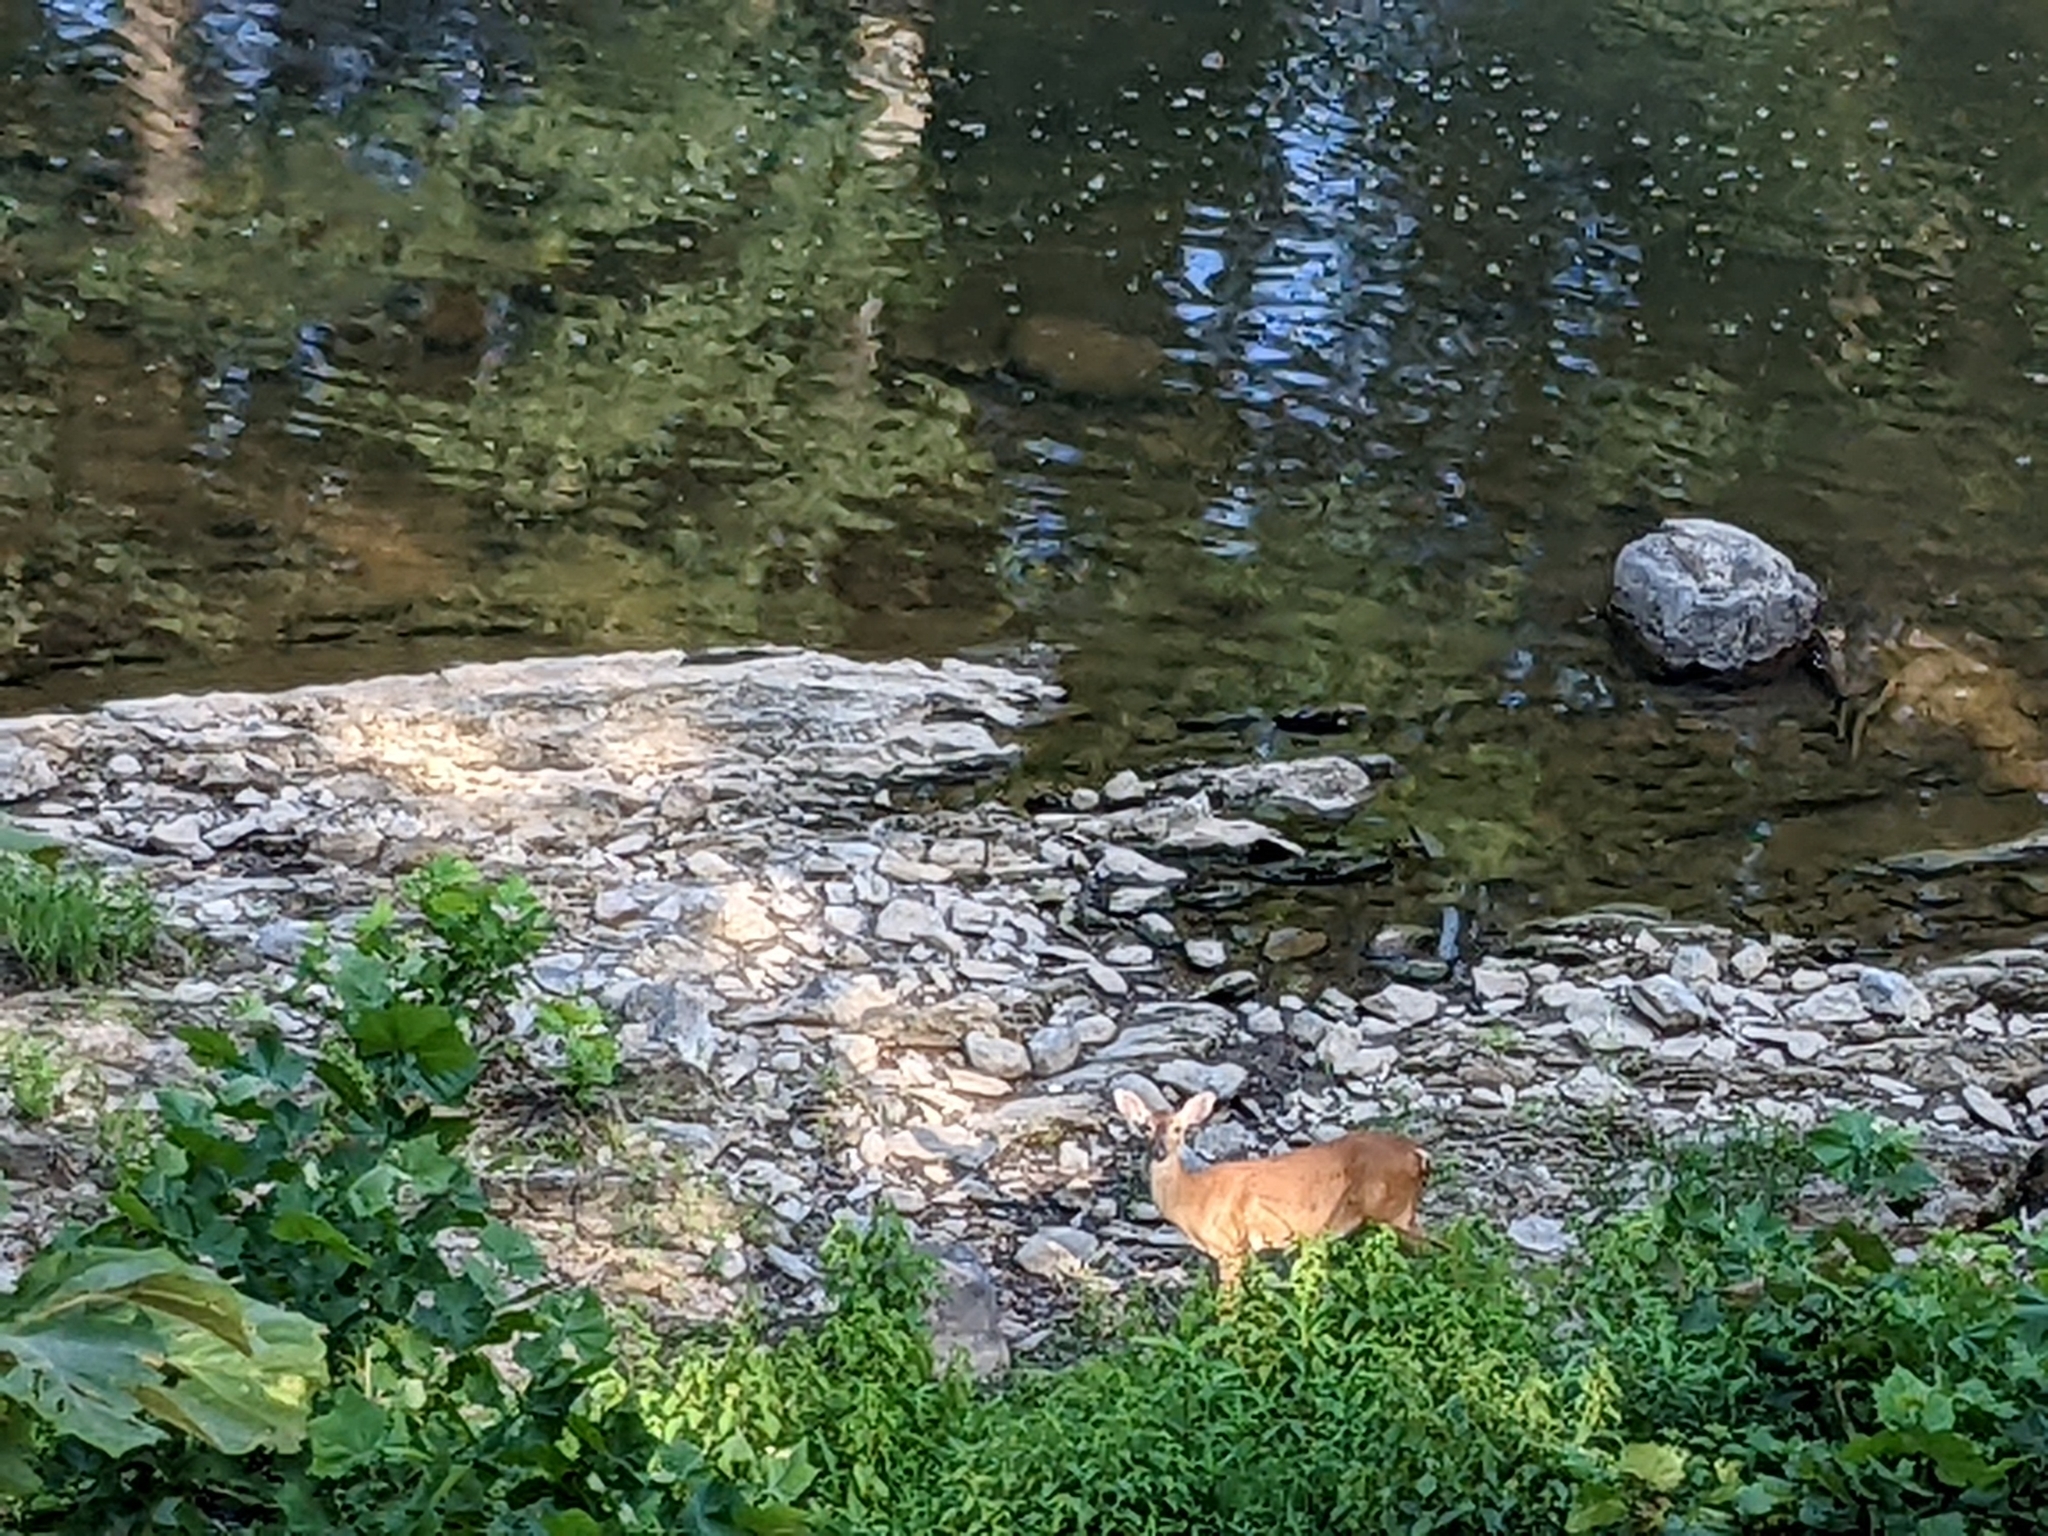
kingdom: Animalia
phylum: Chordata
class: Mammalia
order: Artiodactyla
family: Cervidae
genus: Odocoileus
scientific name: Odocoileus virginianus
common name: White-tailed deer
